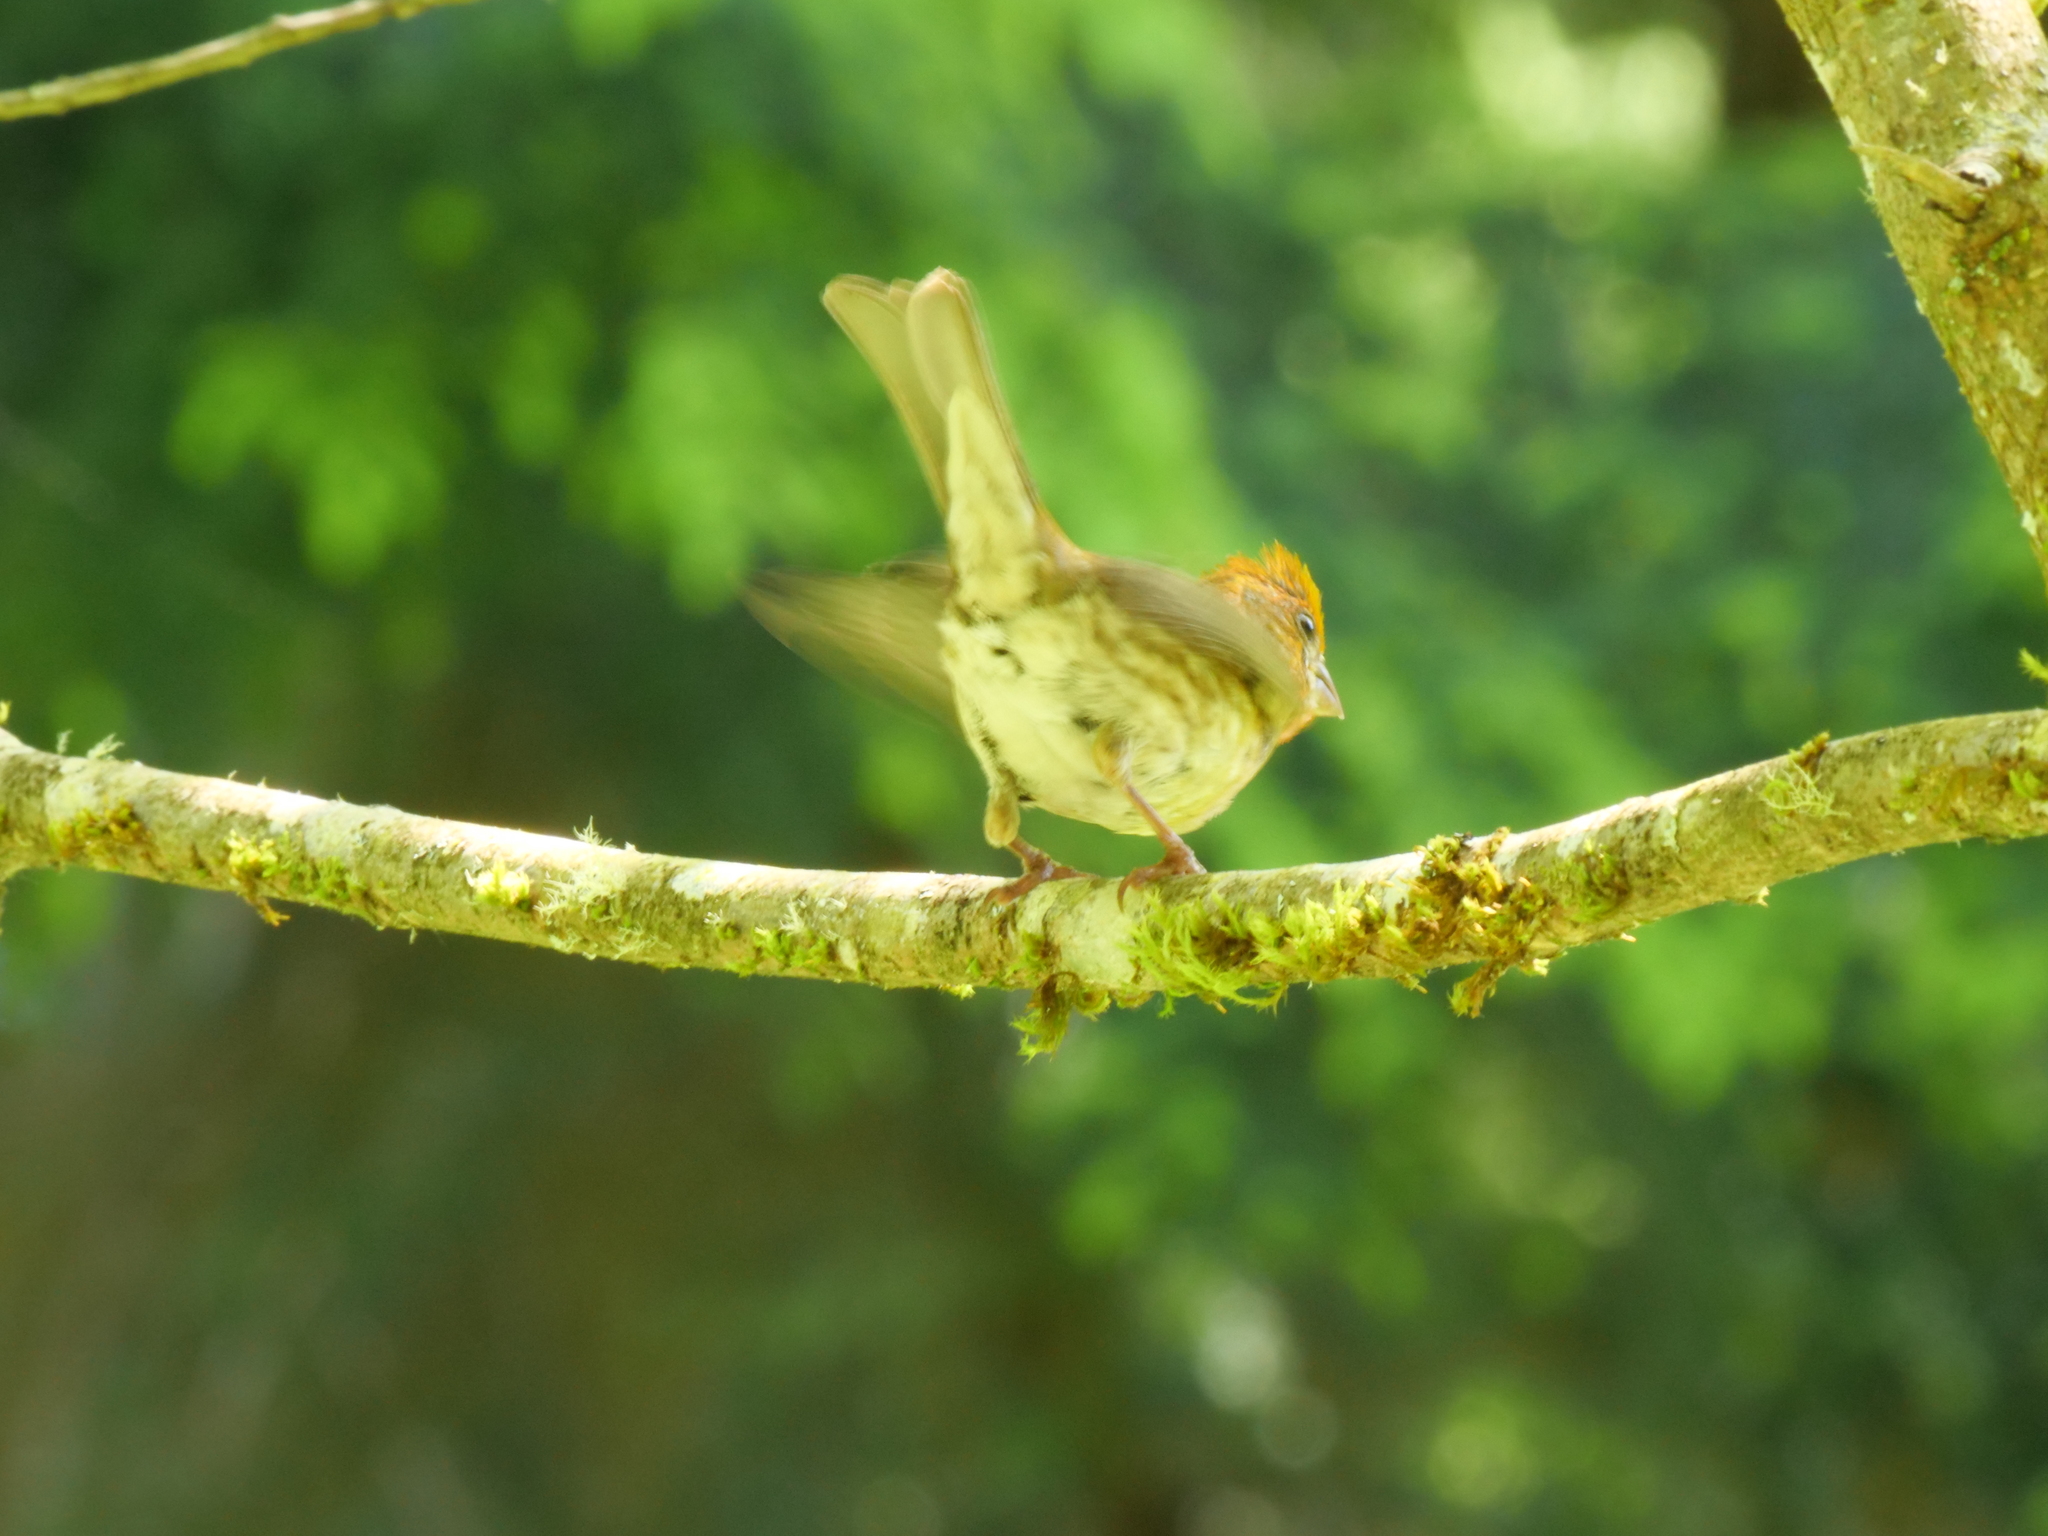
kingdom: Animalia
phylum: Chordata
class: Aves
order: Passeriformes
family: Fringillidae
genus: Haemorhous
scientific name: Haemorhous purpureus
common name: Purple finch
